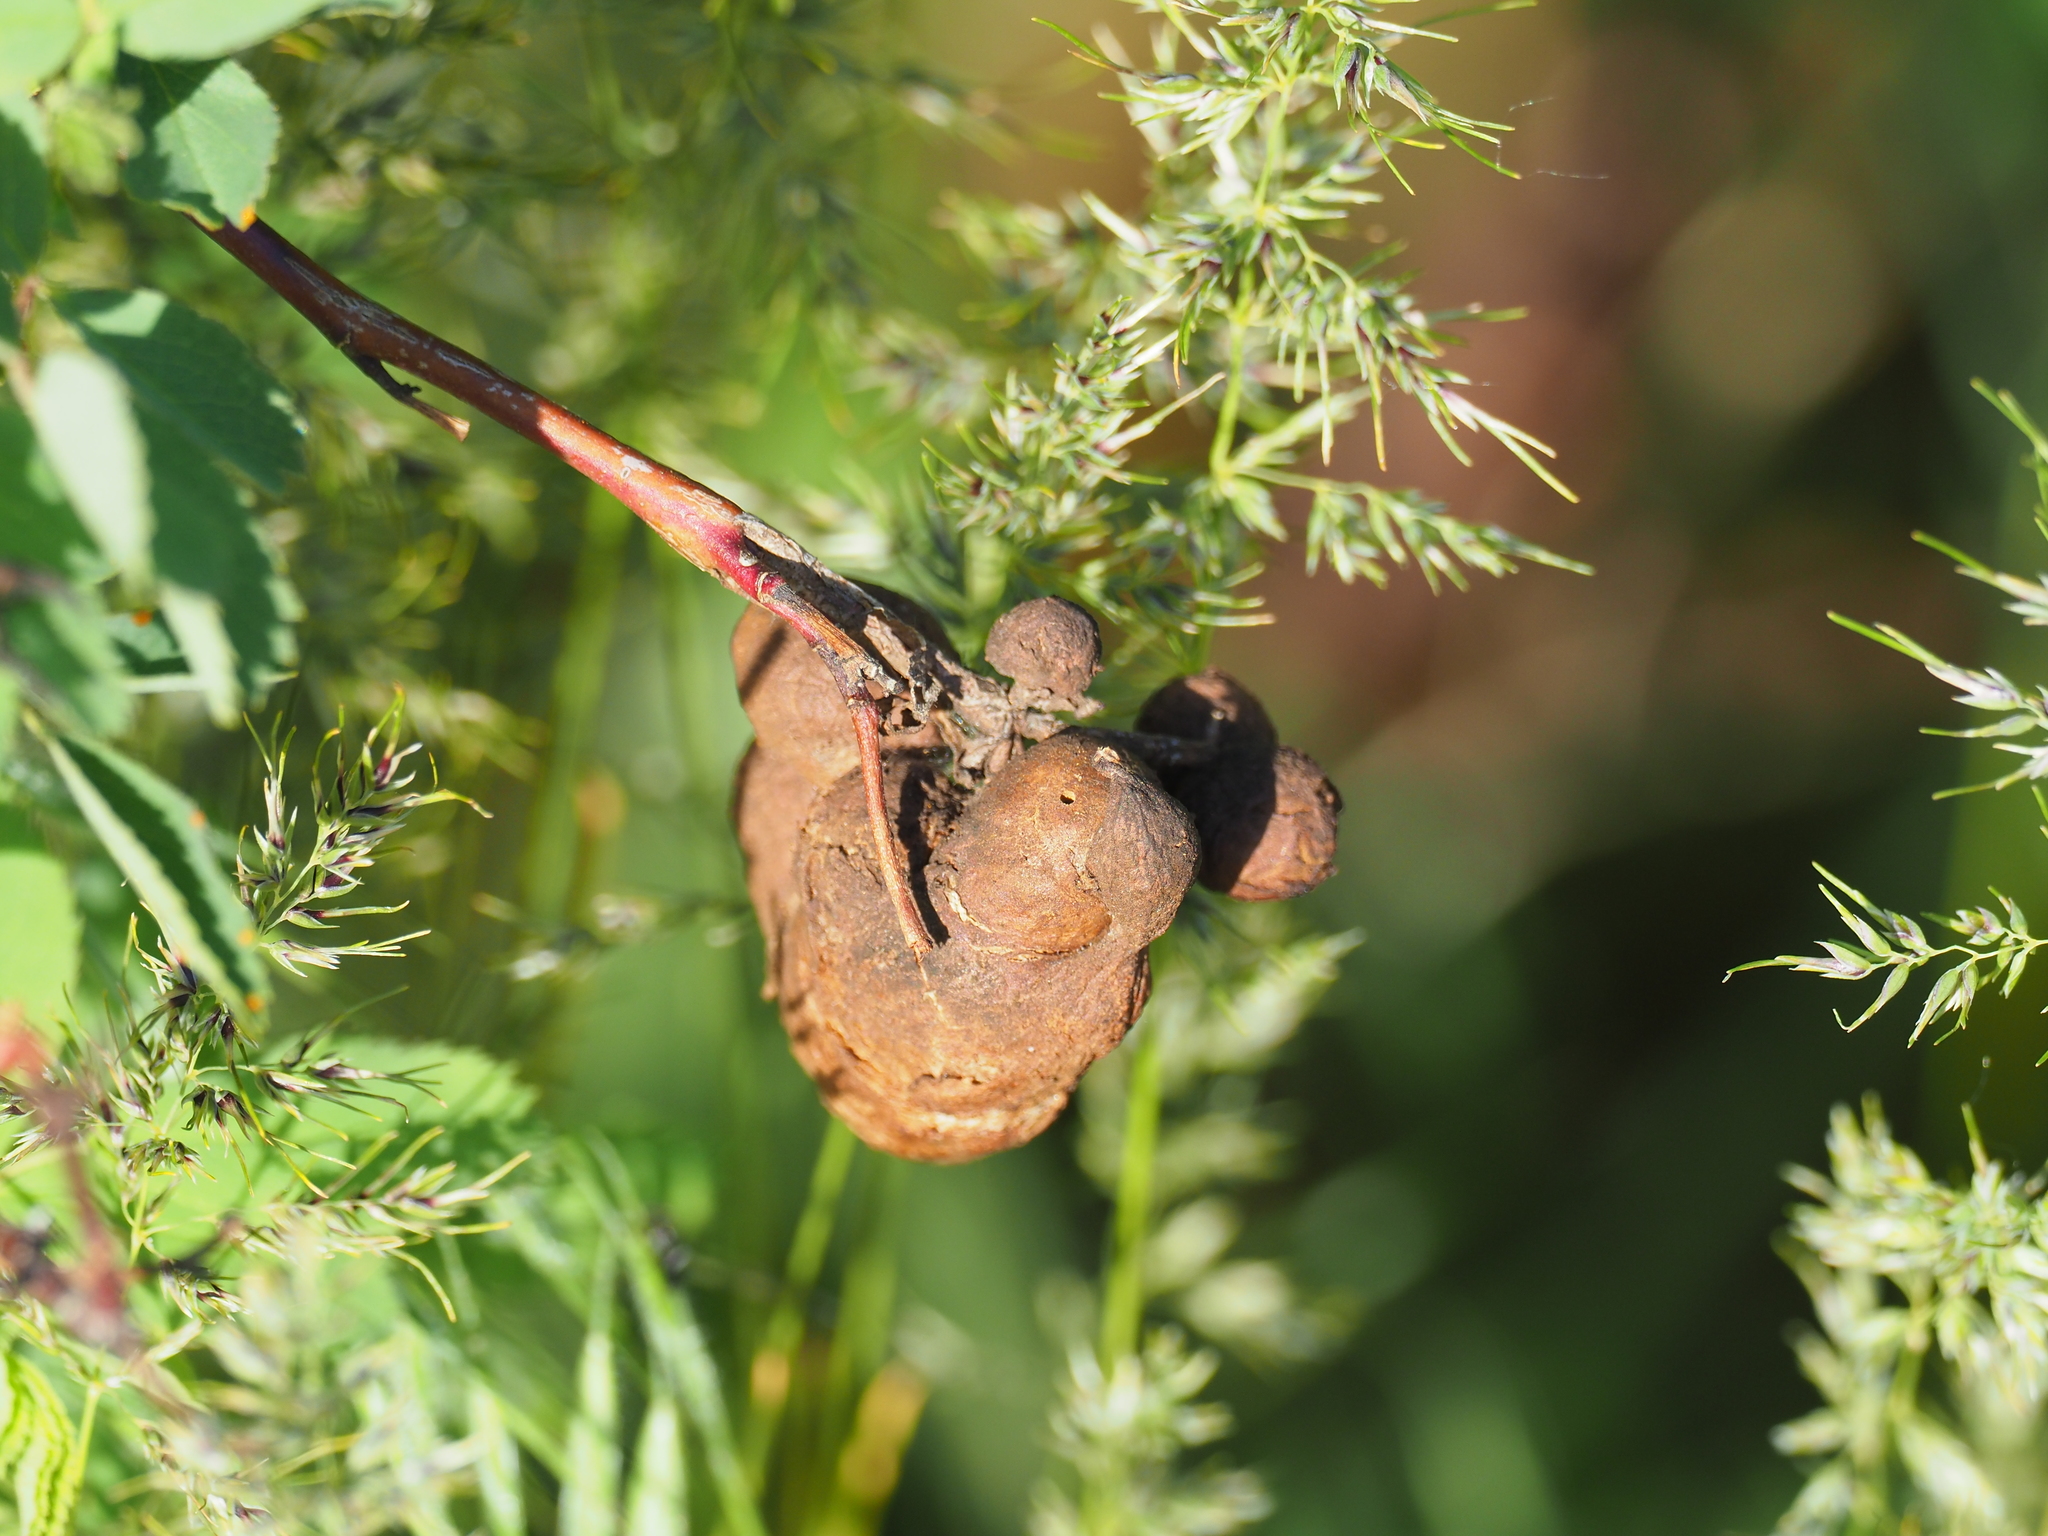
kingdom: Animalia
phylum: Arthropoda
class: Insecta
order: Hymenoptera
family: Cynipidae
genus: Diplolepis
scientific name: Diplolepis variabilis
